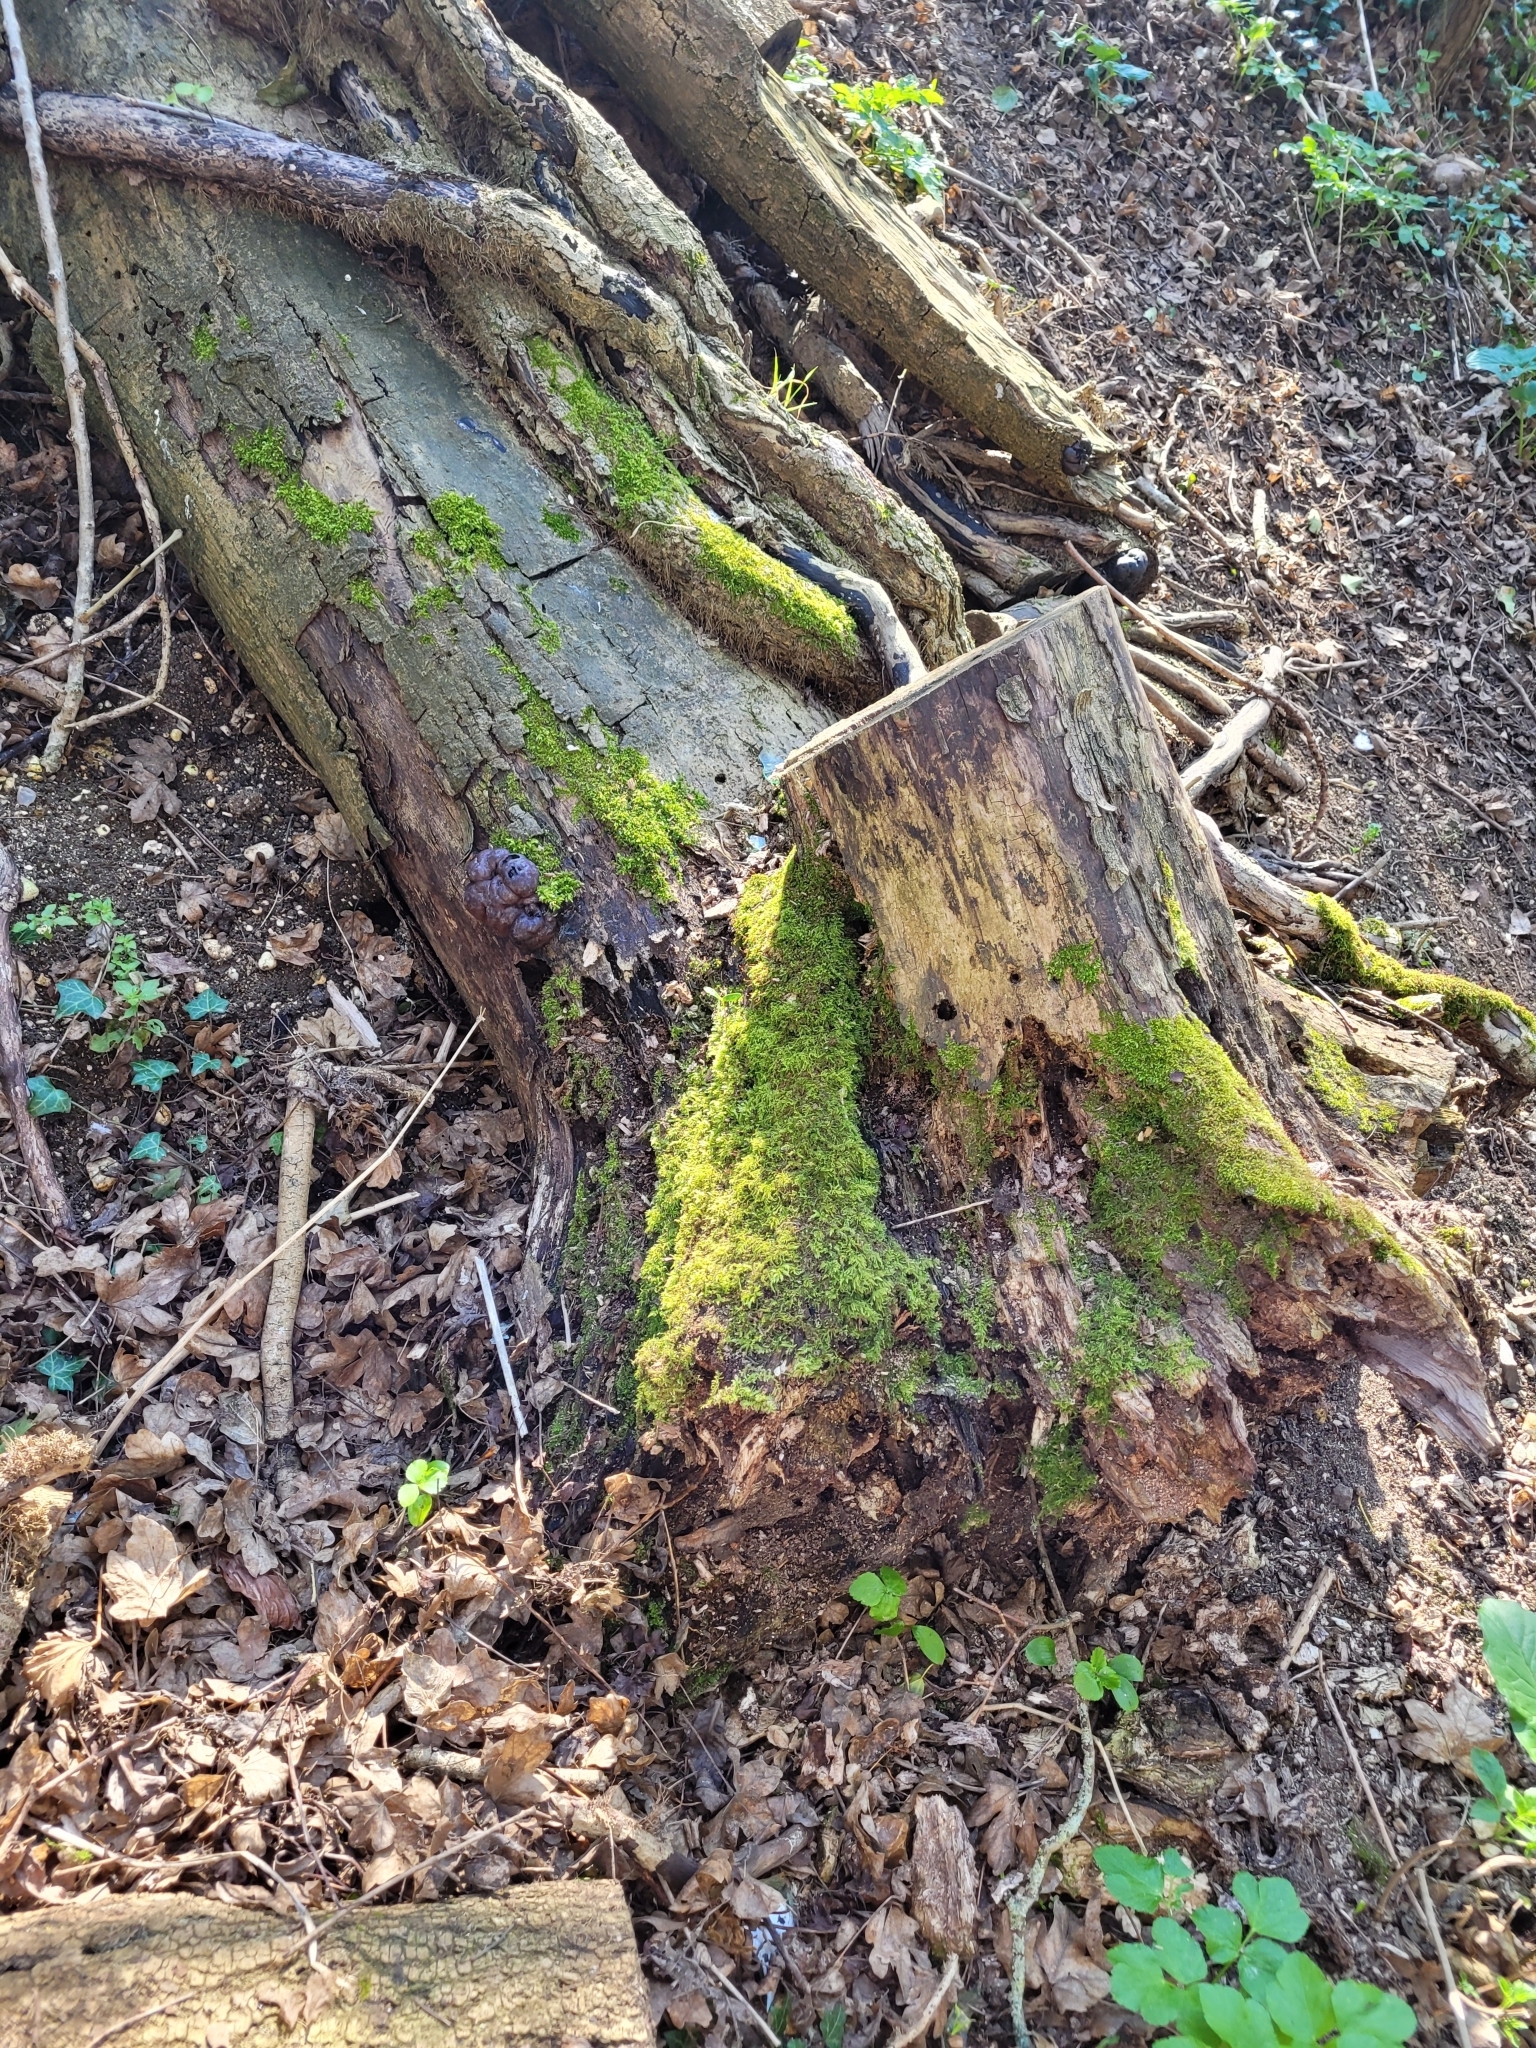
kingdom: Fungi
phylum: Ascomycota
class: Sordariomycetes
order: Xylariales
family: Hypoxylaceae
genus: Daldinia
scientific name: Daldinia concentrica
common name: Cramp balls
